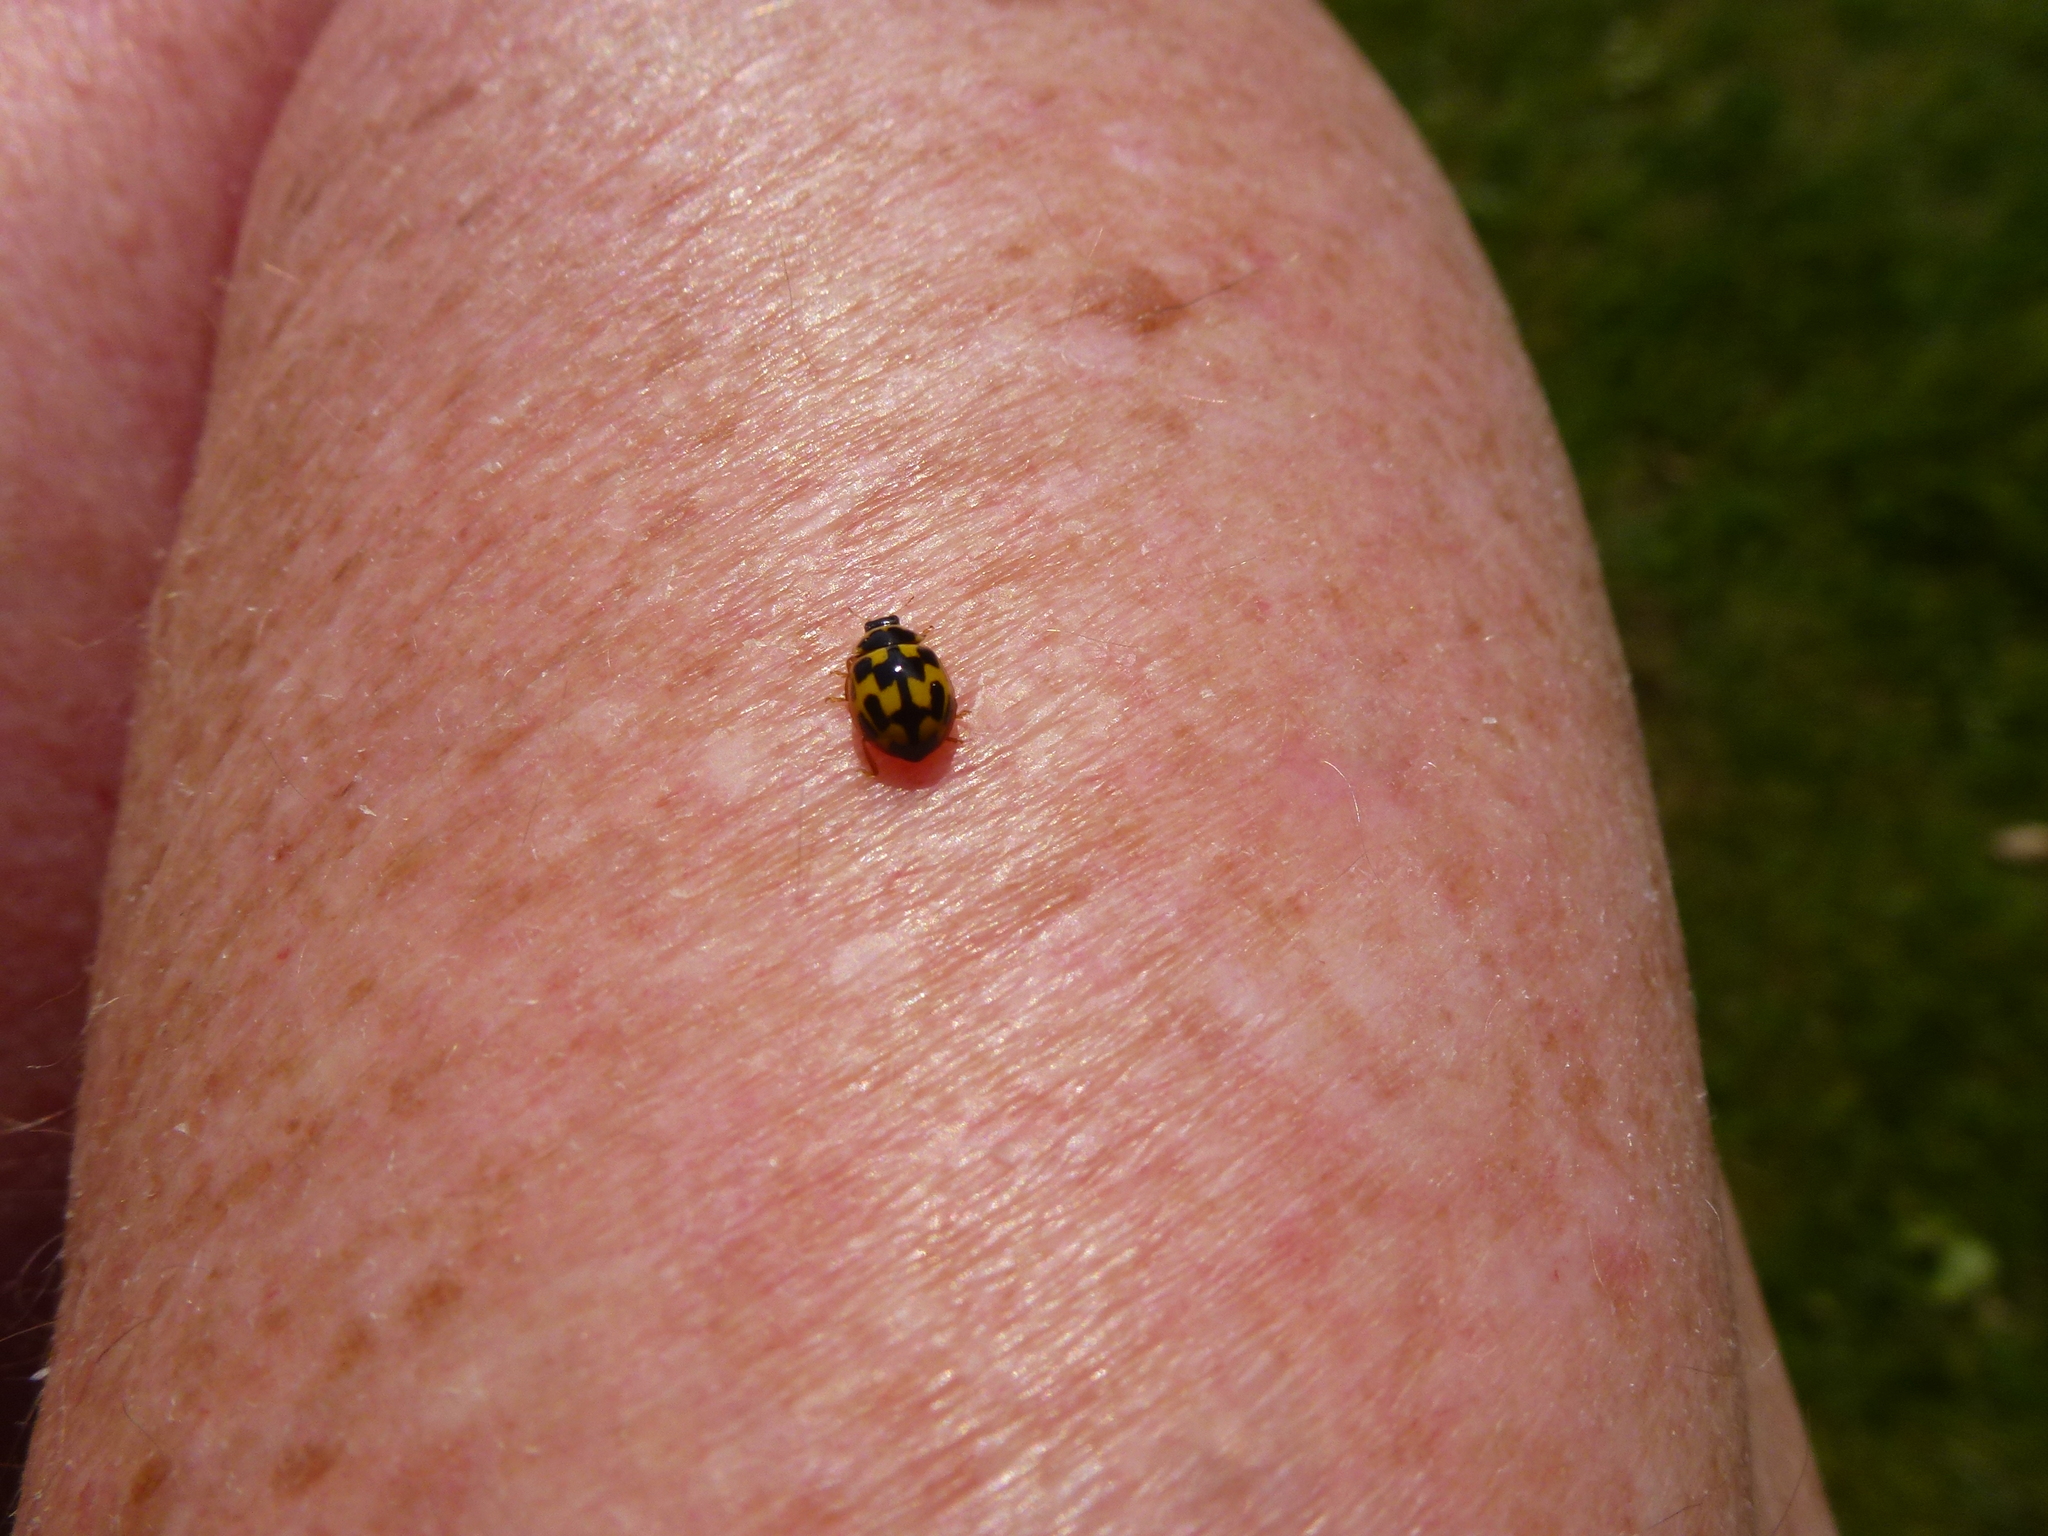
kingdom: Animalia
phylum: Arthropoda
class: Insecta
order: Coleoptera
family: Coccinellidae
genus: Propylaea
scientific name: Propylaea quatuordecimpunctata
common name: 14-spotted ladybird beetle
